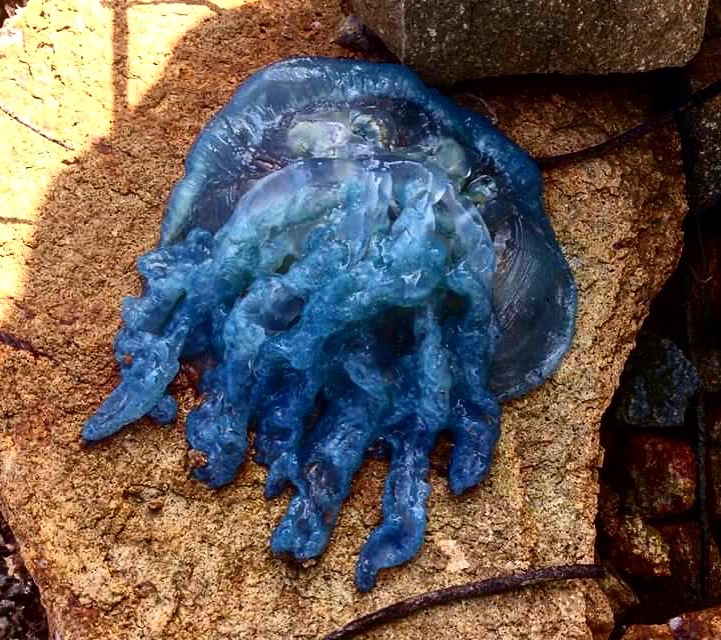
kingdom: Animalia
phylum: Cnidaria
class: Scyphozoa
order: Rhizostomeae
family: Catostylidae
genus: Catostylus
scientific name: Catostylus mosaicus
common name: Blue blubber
